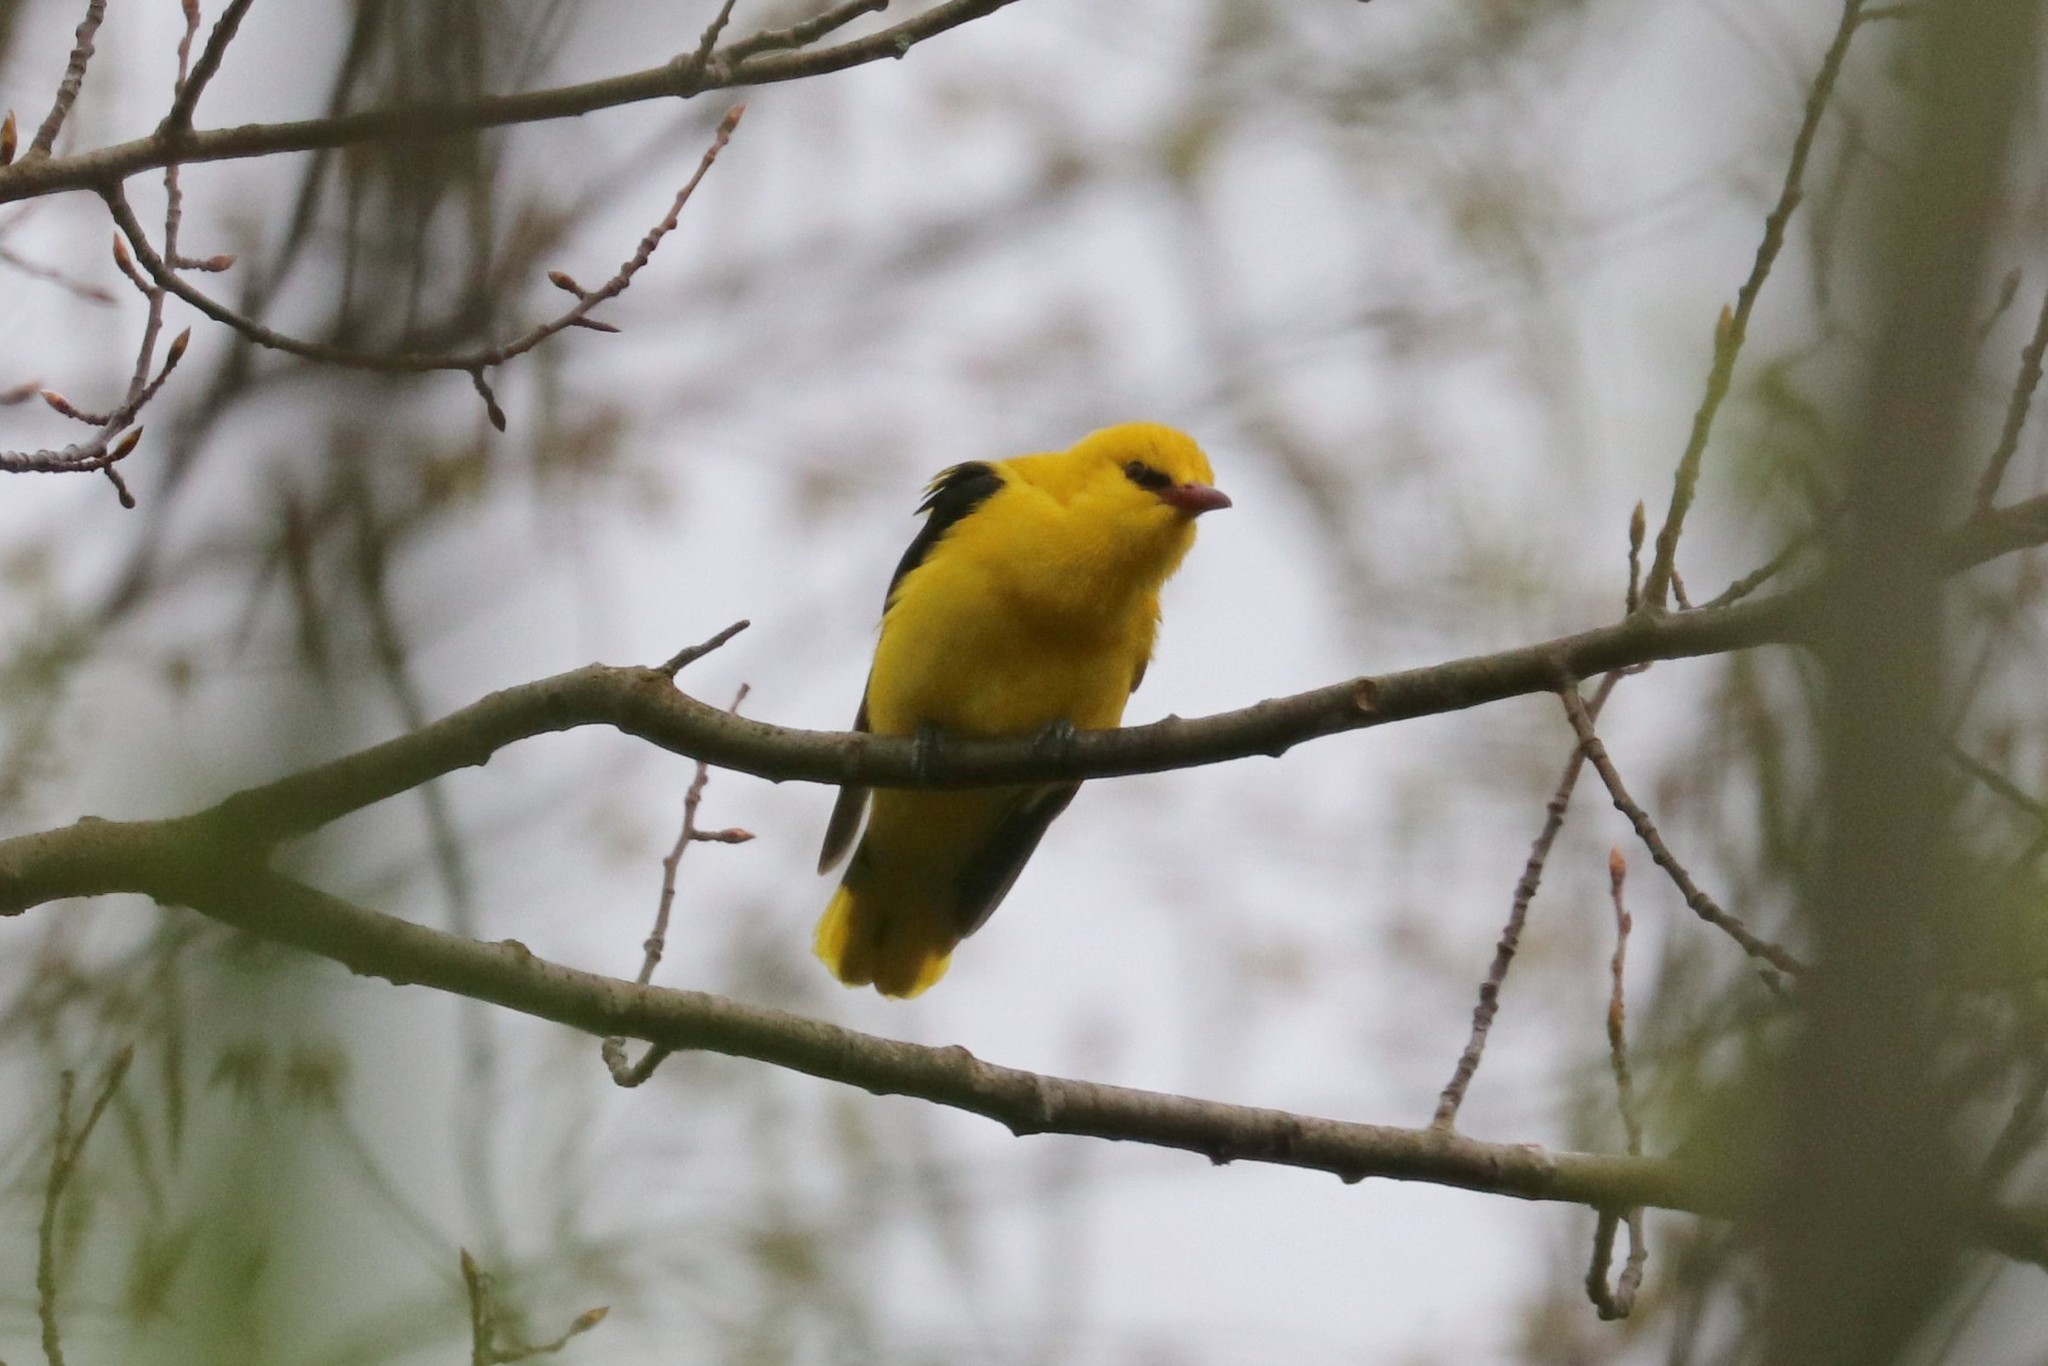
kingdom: Animalia
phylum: Chordata
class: Aves
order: Passeriformes
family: Oriolidae
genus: Oriolus
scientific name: Oriolus oriolus
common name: Eurasian golden oriole
